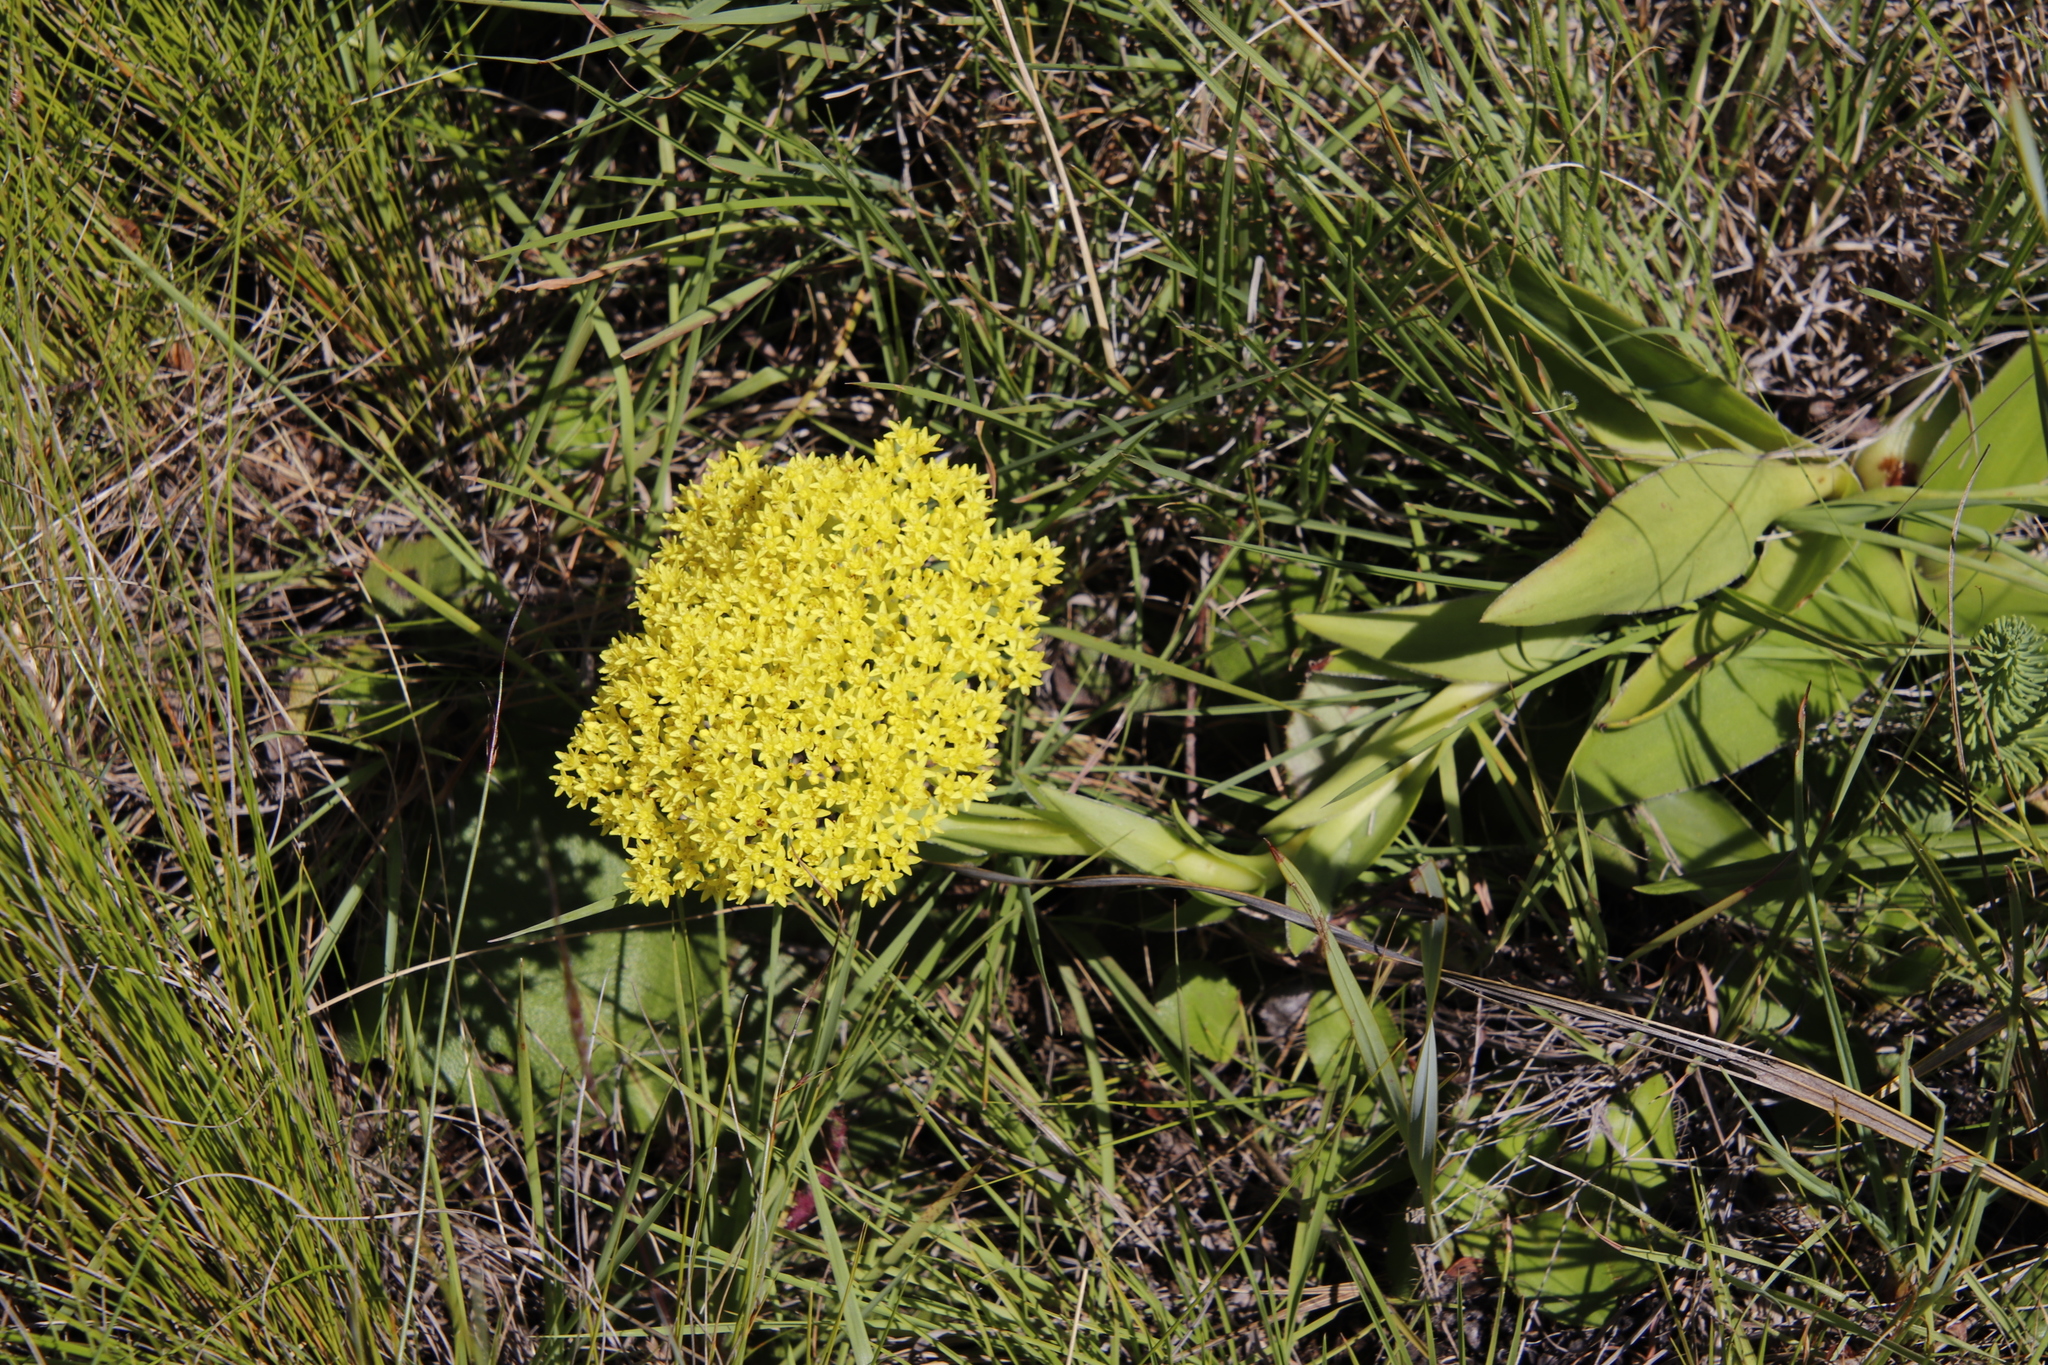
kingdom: Plantae
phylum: Tracheophyta
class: Magnoliopsida
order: Saxifragales
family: Crassulaceae
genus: Crassula
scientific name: Crassula vaginata
